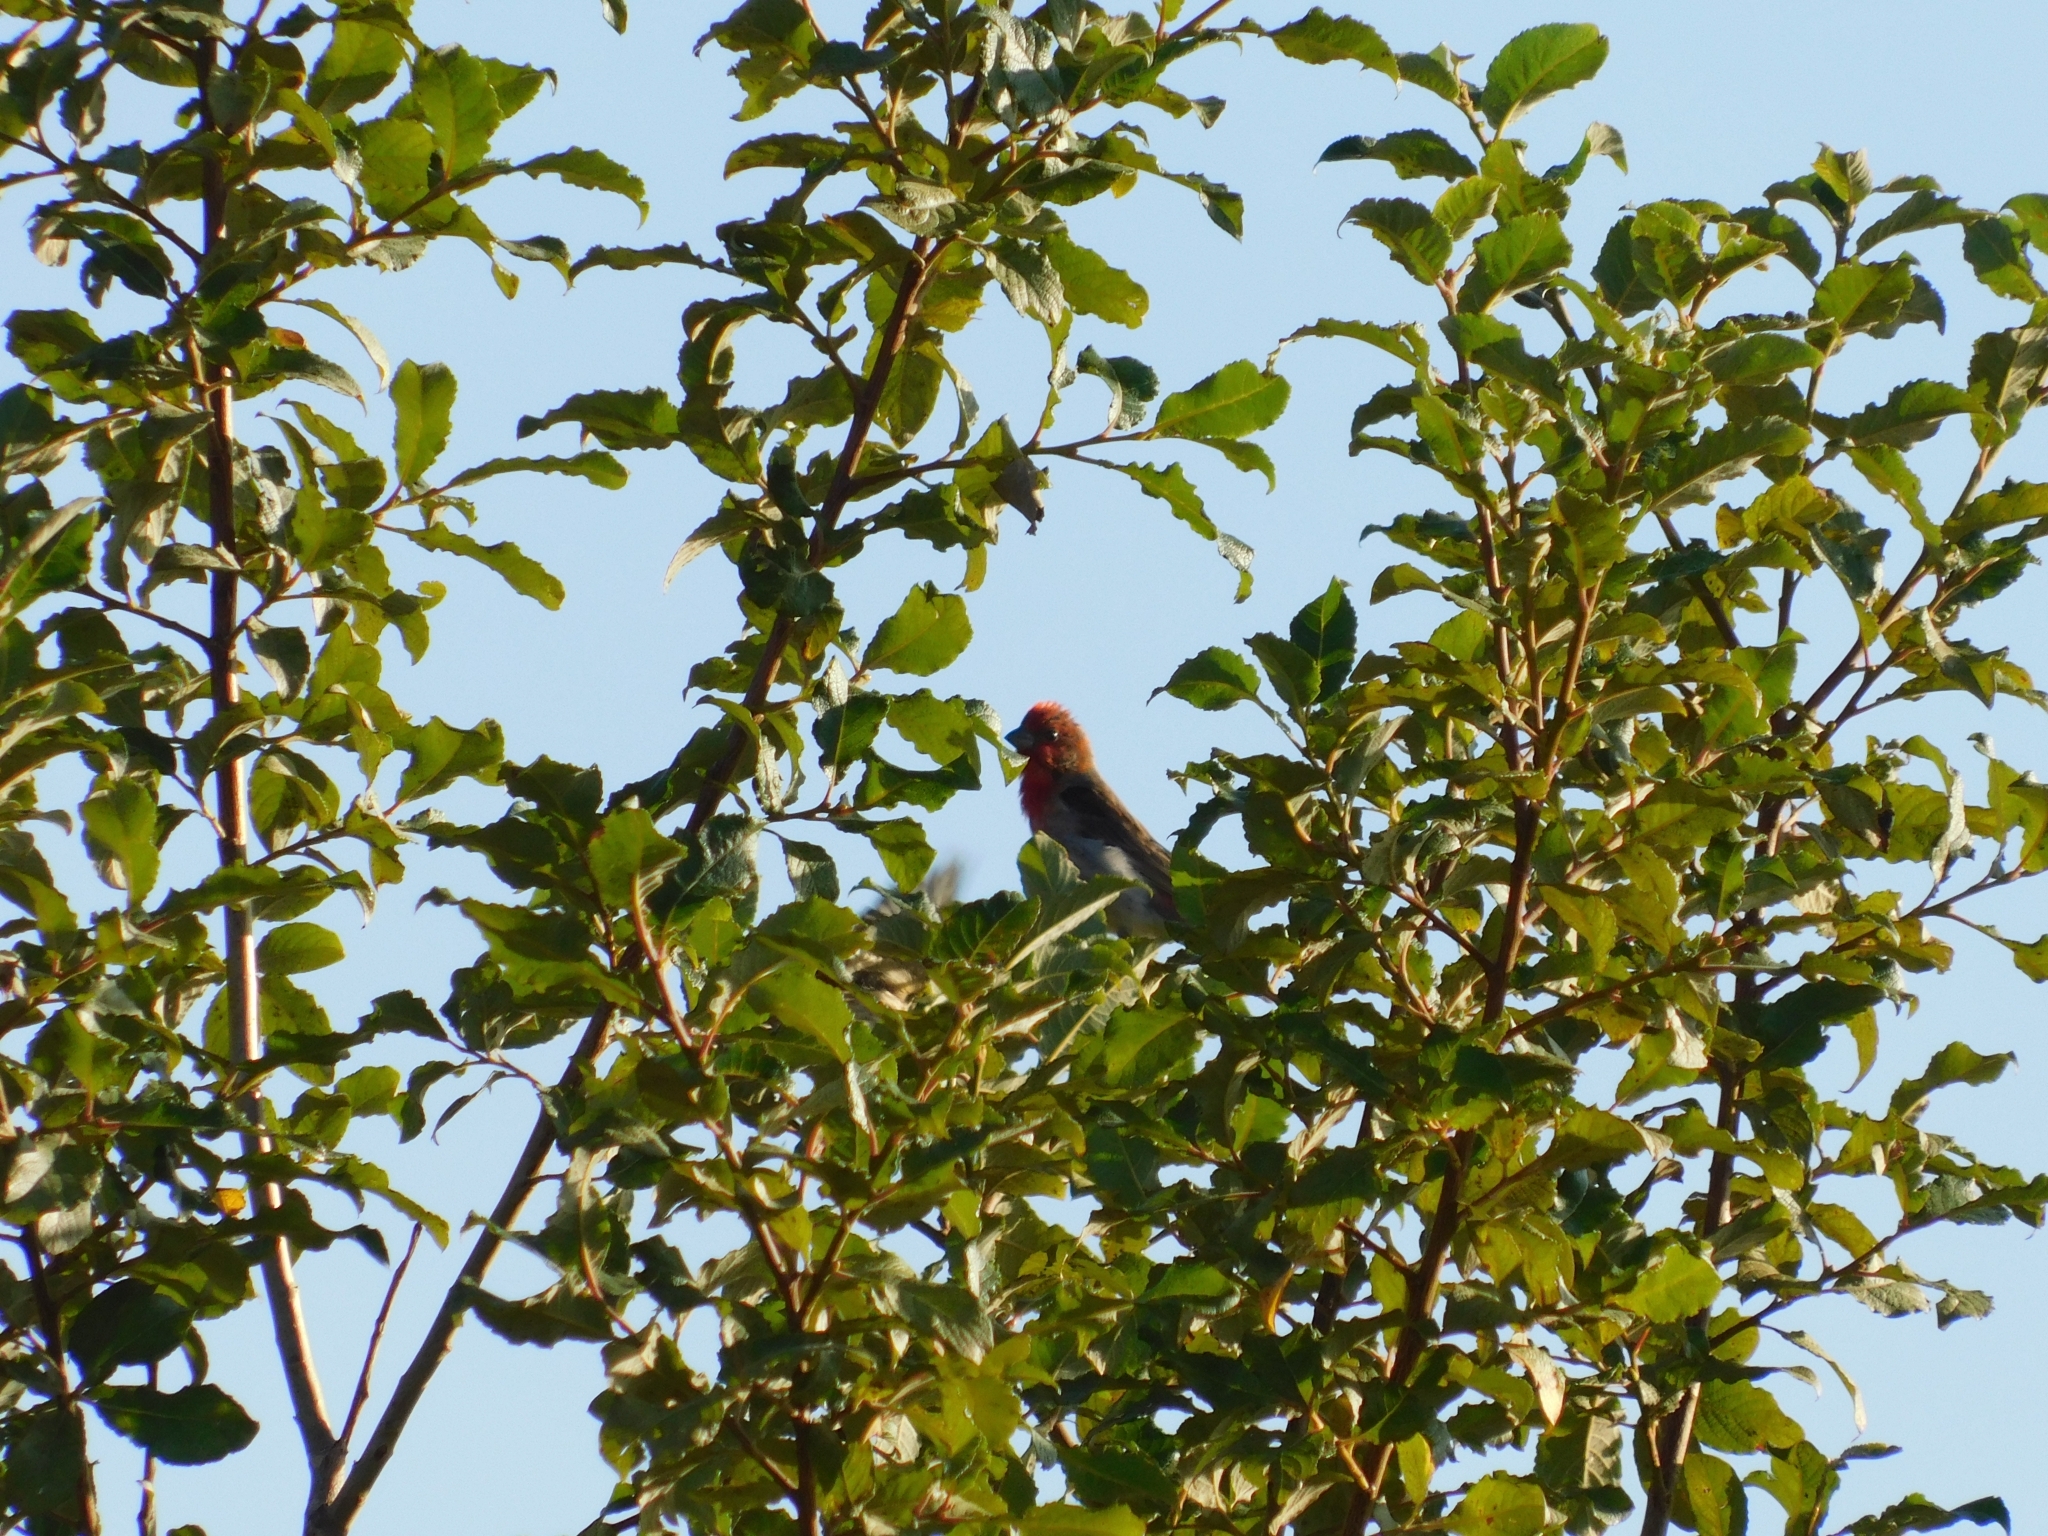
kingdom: Animalia
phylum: Chordata
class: Aves
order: Passeriformes
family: Fringillidae
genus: Carpodacus
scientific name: Carpodacus erythrinus
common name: Common rosefinch
